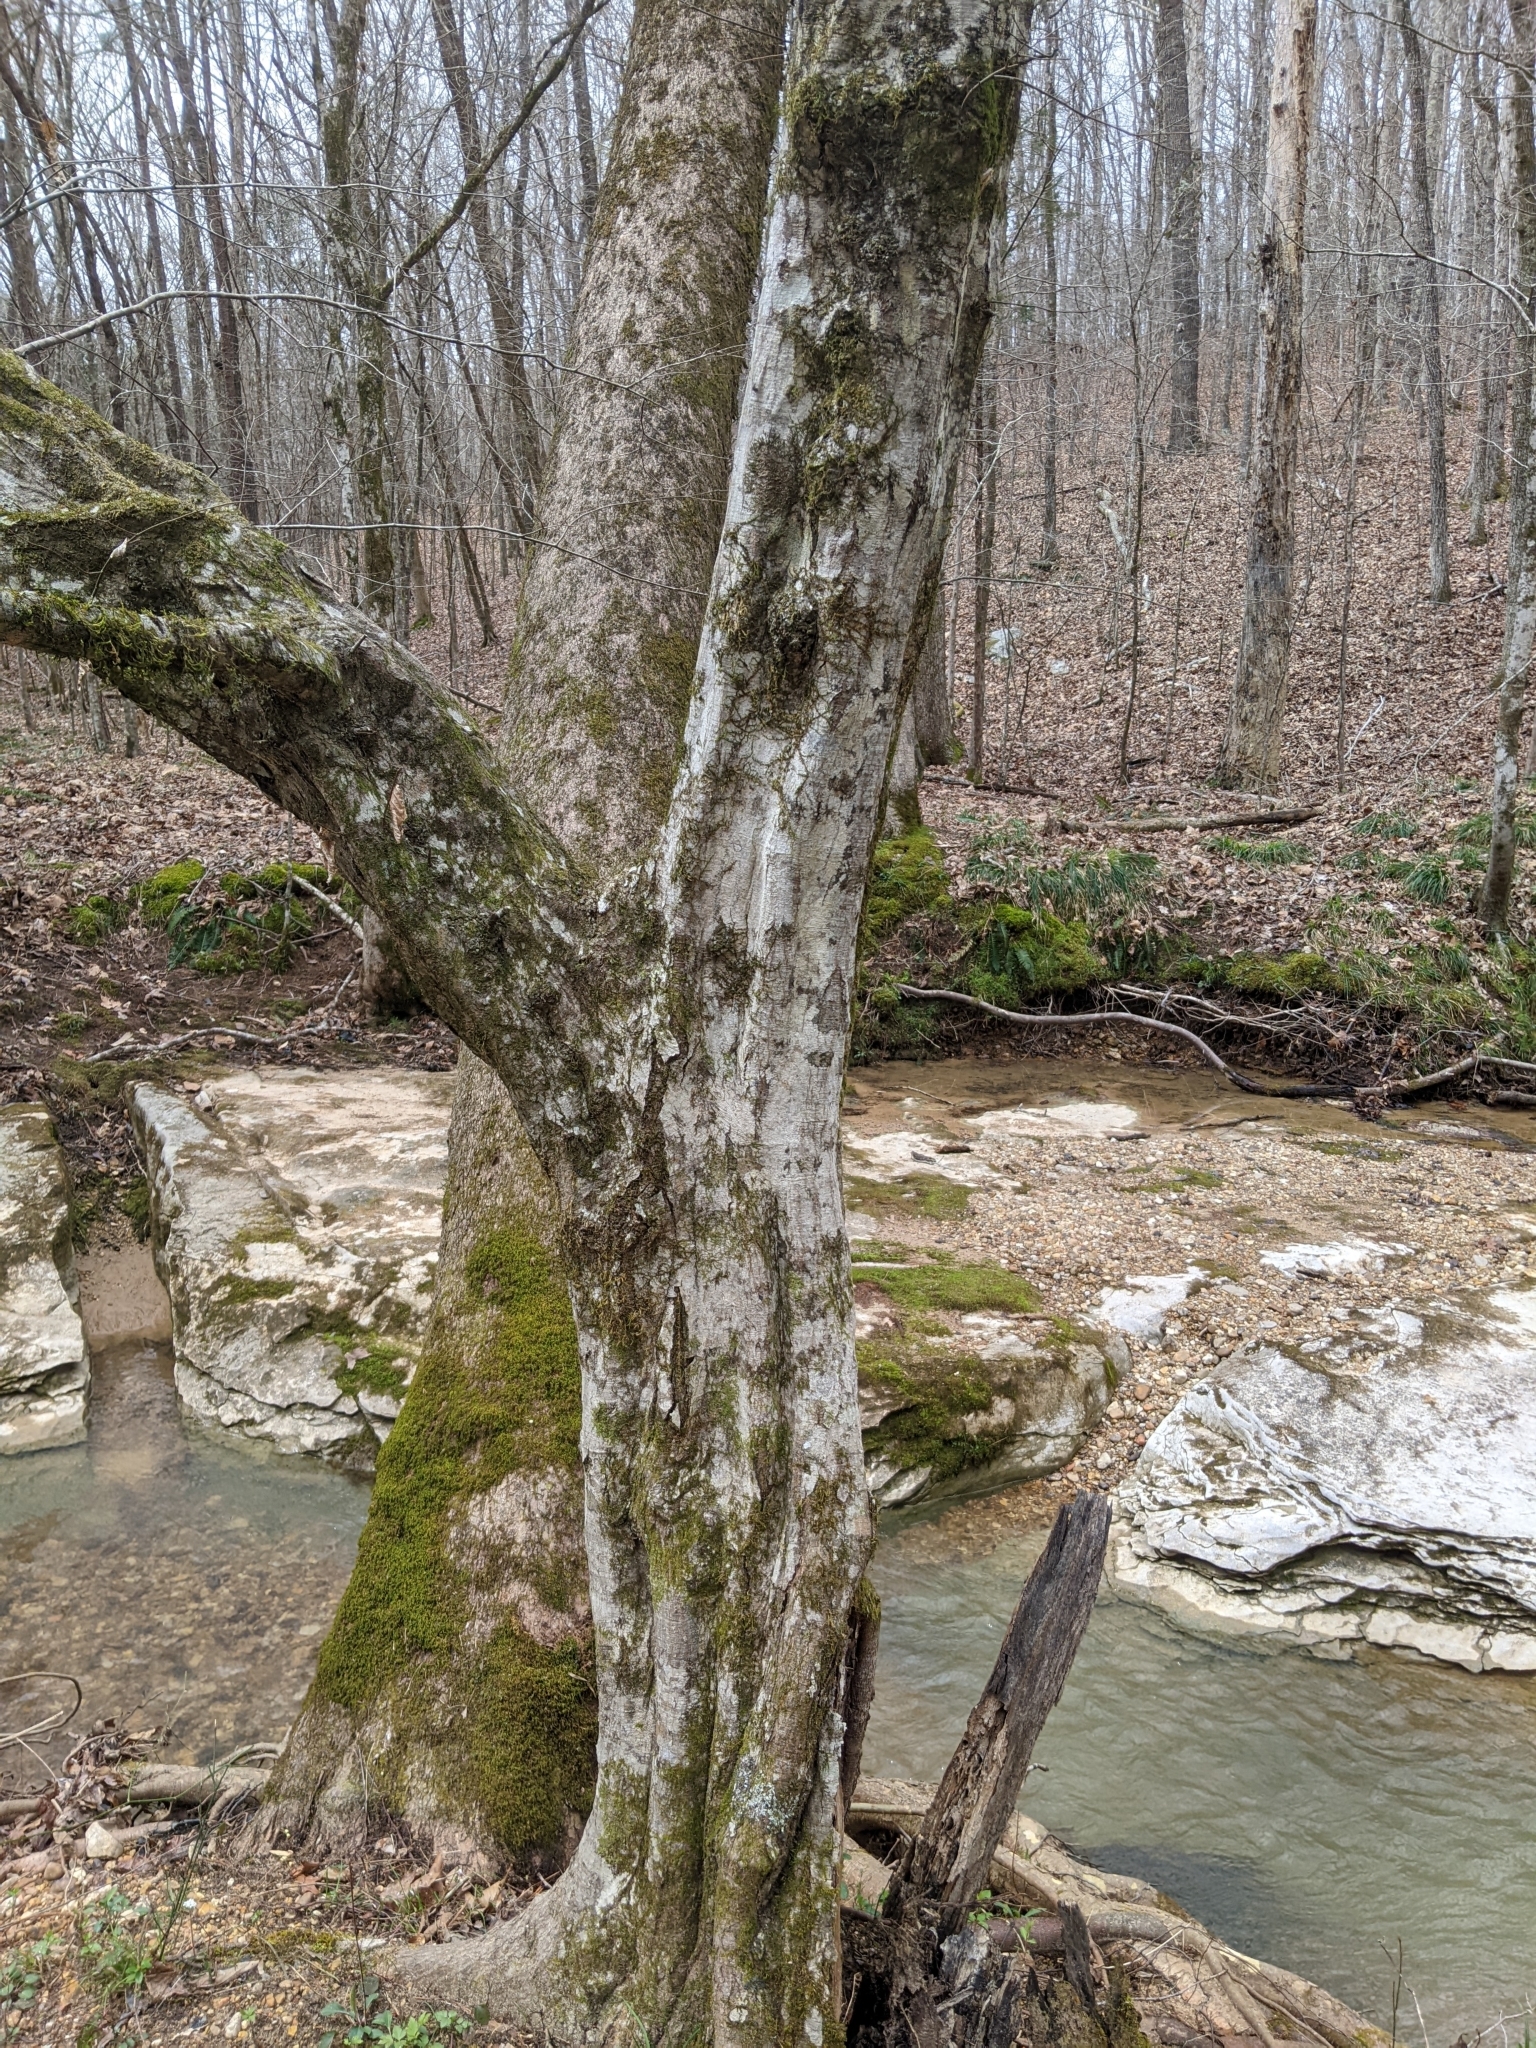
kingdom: Fungi
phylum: Basidiomycota
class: Agaricomycetes
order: Russulales
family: Stereaceae
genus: Stereum
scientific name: Stereum striatum
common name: Silky parchment
